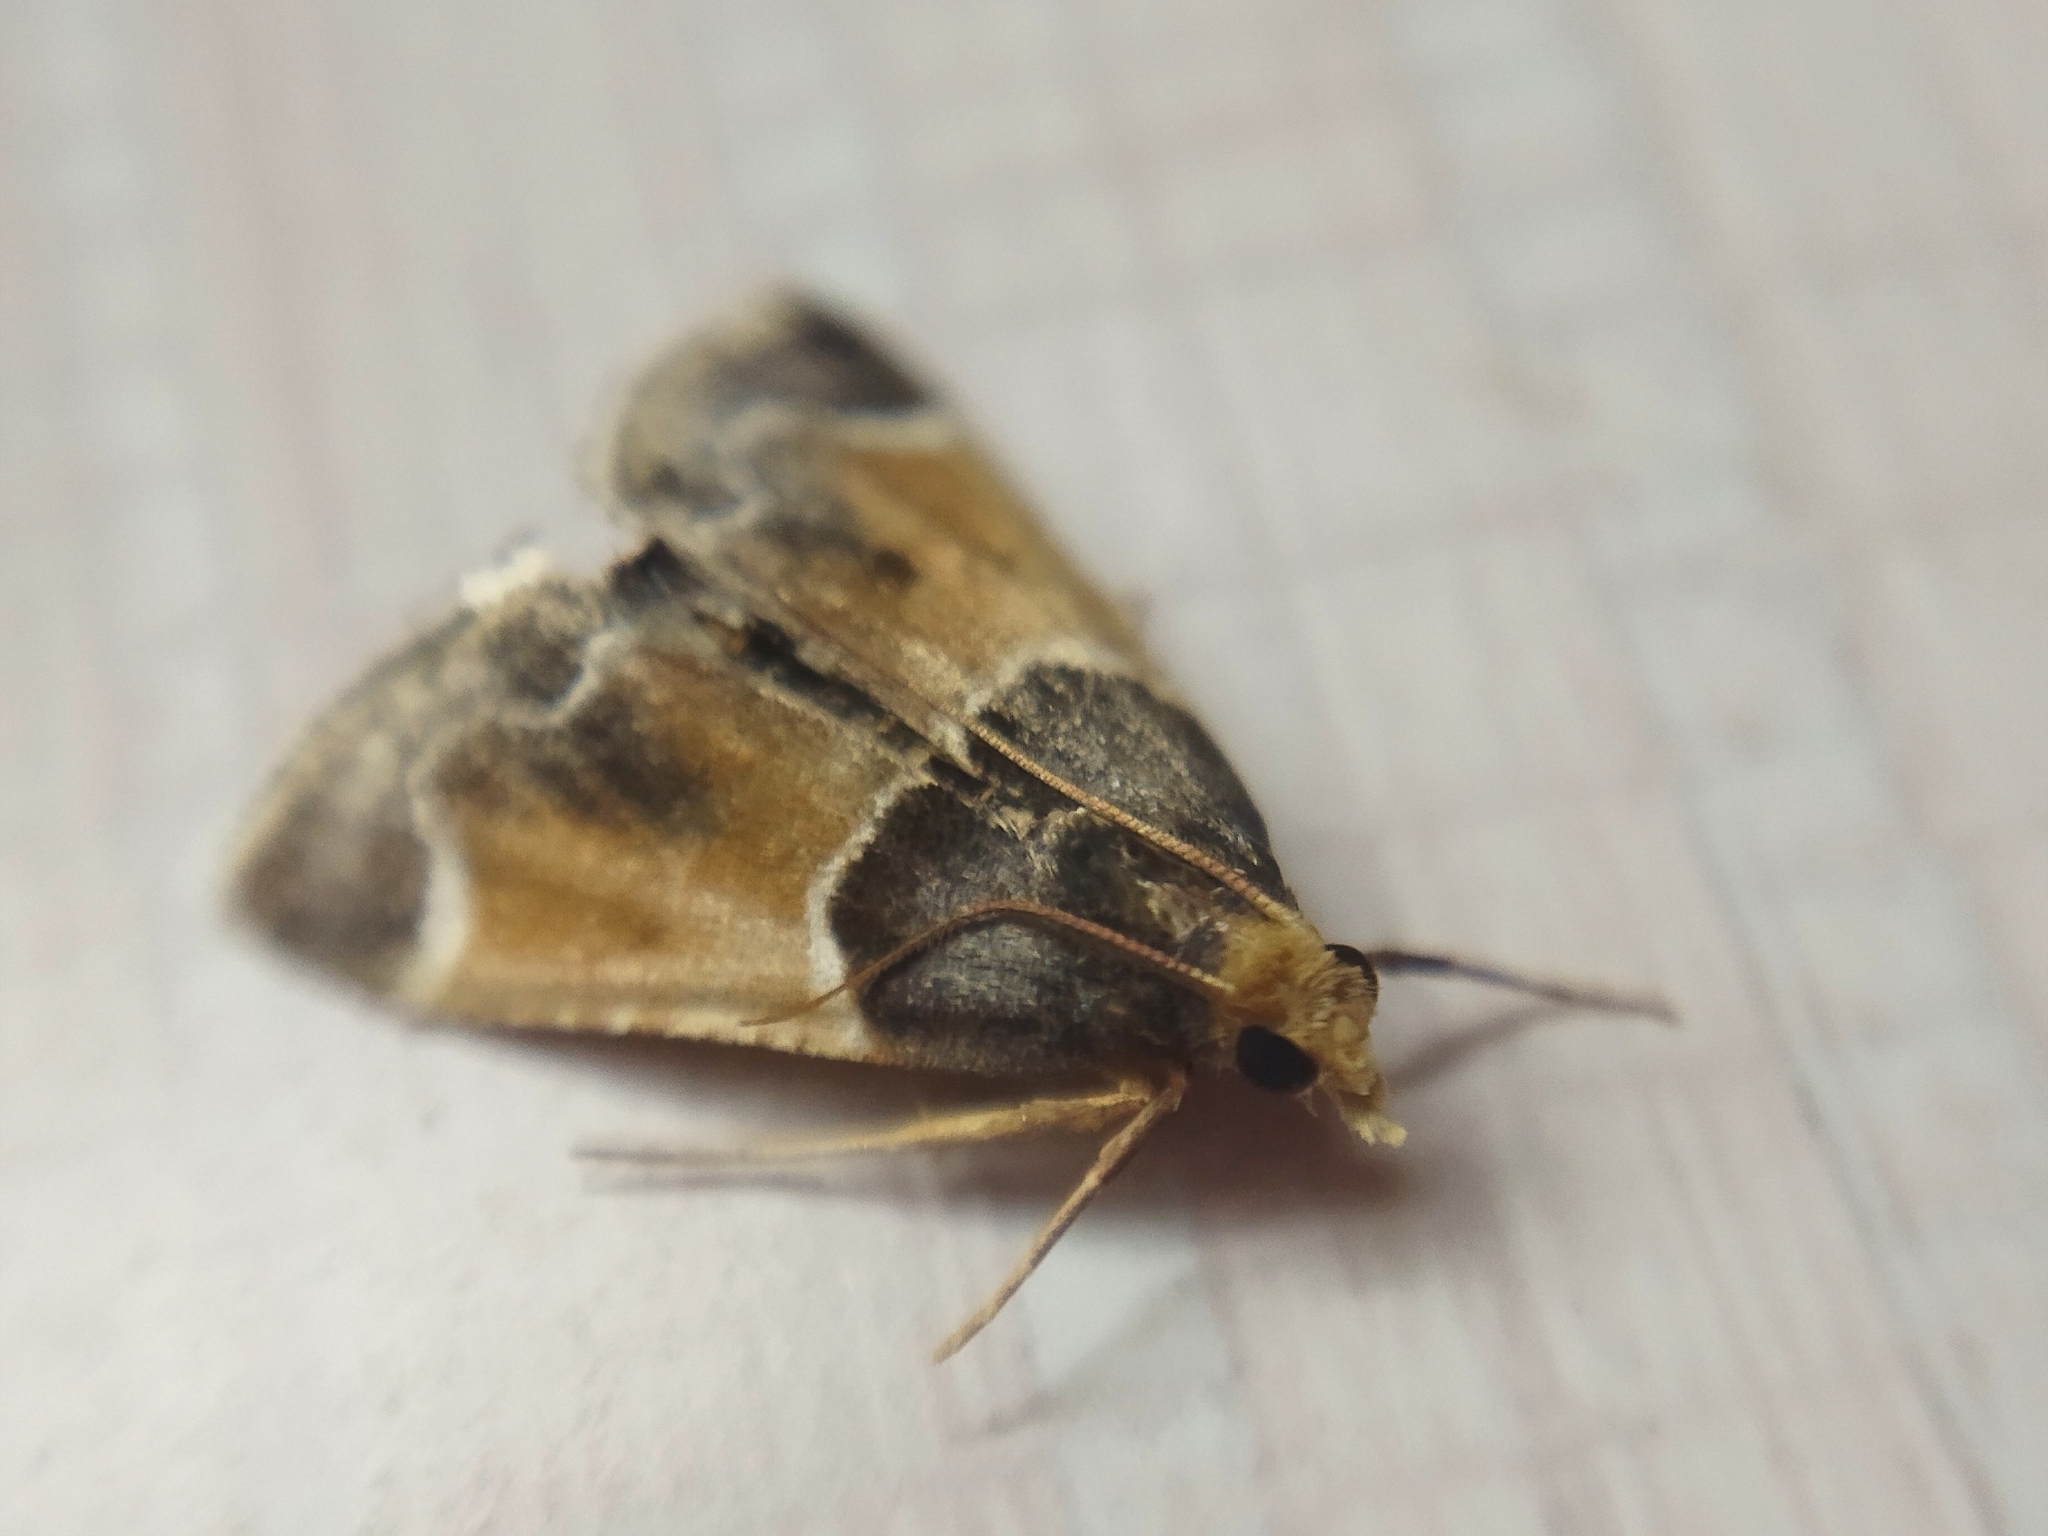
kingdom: Animalia
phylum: Arthropoda
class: Insecta
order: Lepidoptera
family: Pyralidae
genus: Pyralis
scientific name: Pyralis farinalis
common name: Meal moth
